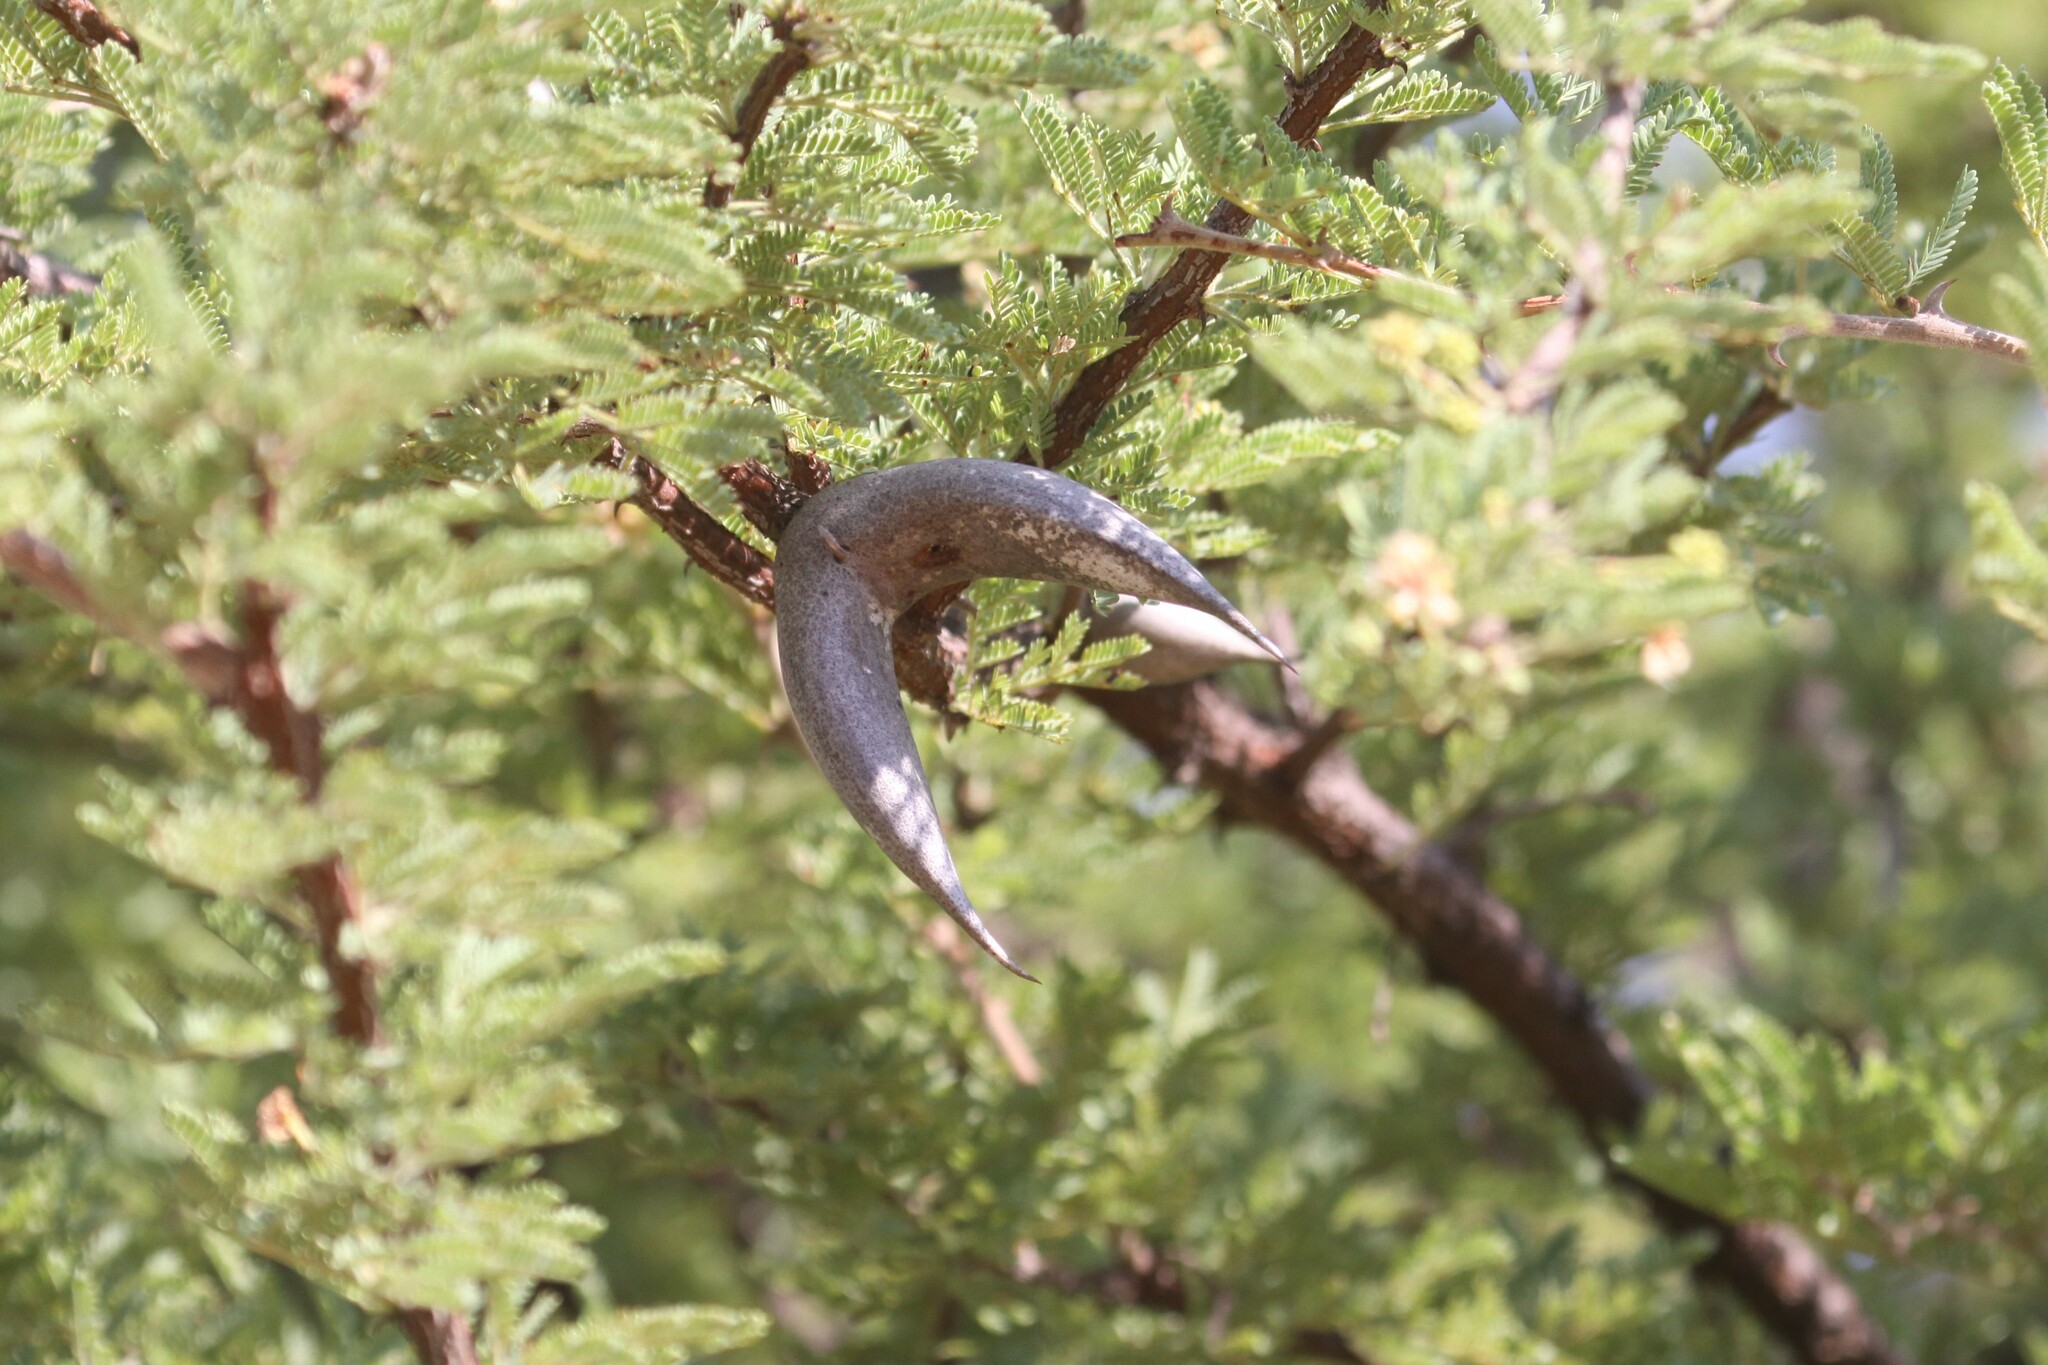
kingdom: Plantae
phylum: Tracheophyta
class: Magnoliopsida
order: Fabales
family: Fabaceae
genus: Vachellia
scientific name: Vachellia luederitzii
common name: Bastard umbrella thorn
